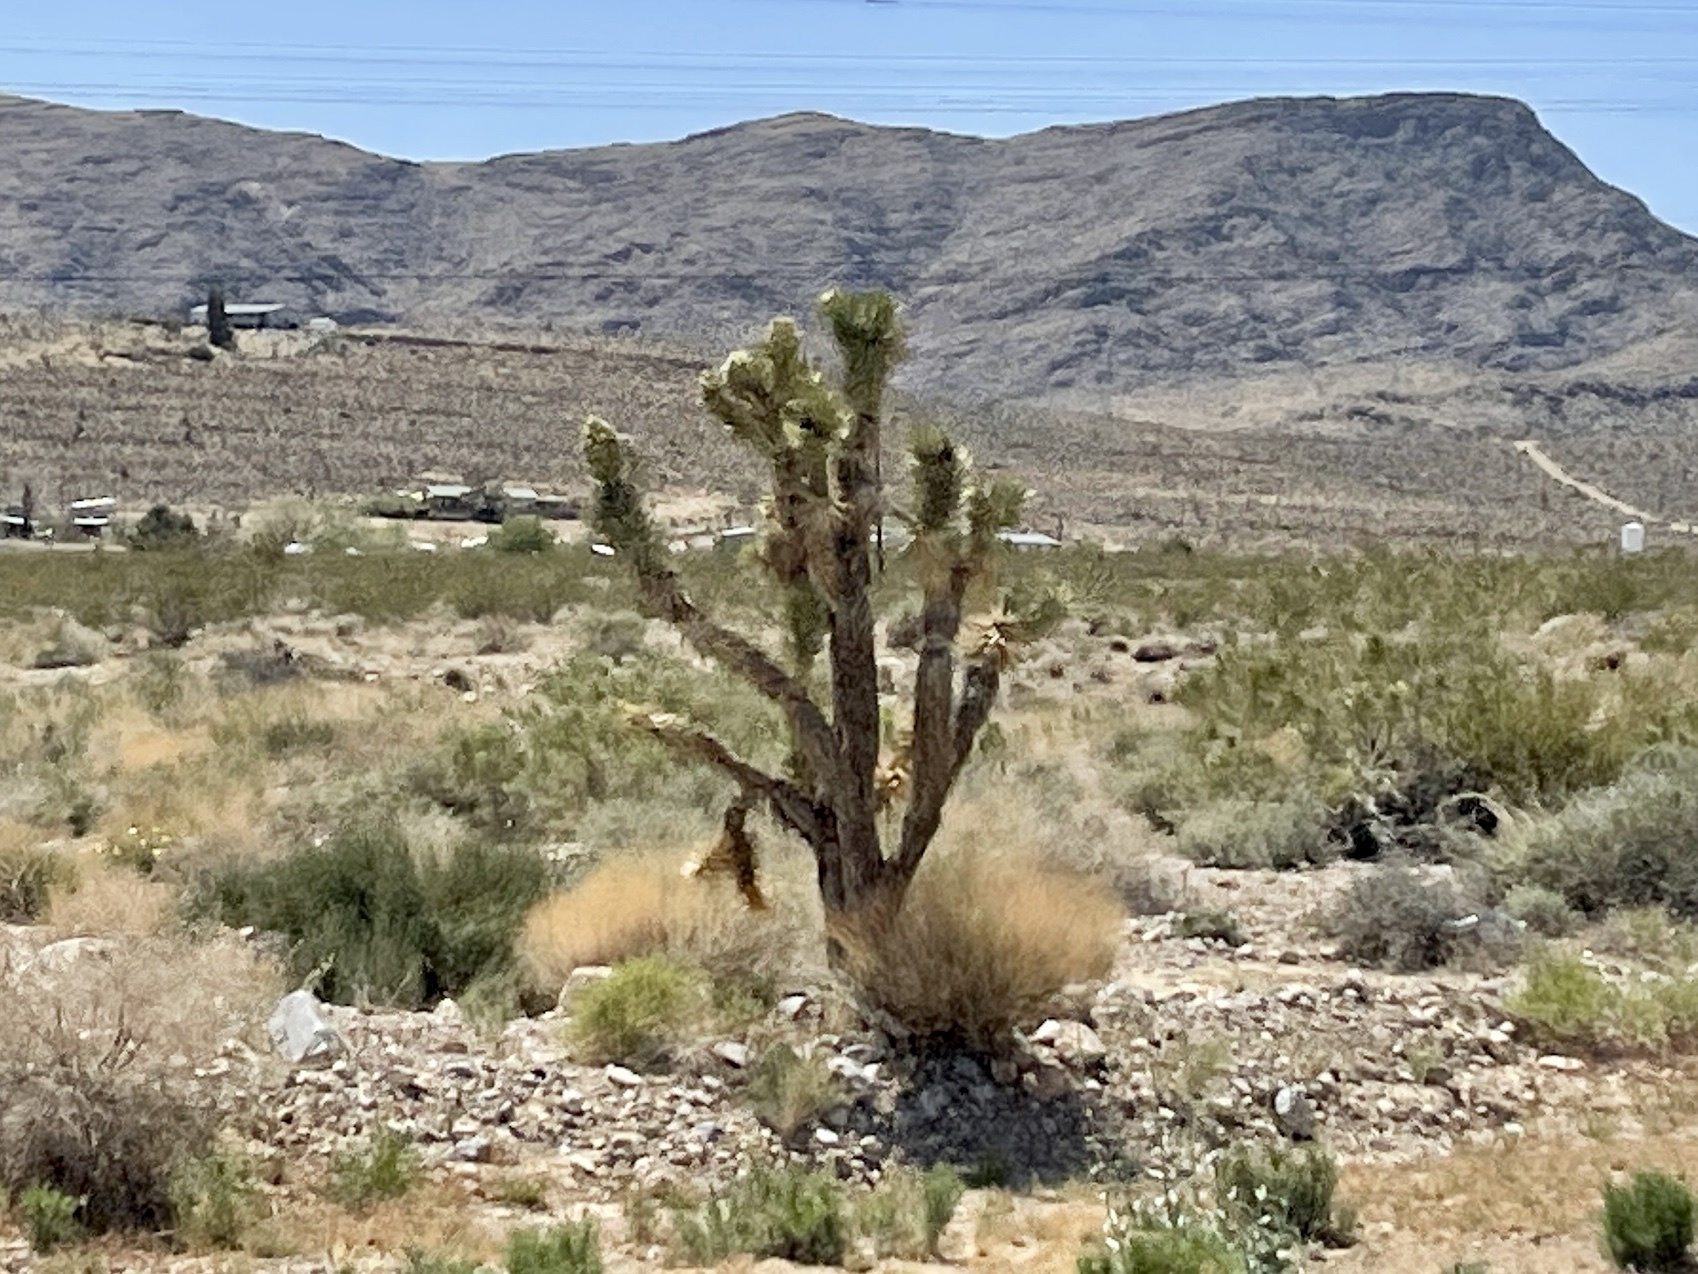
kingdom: Plantae
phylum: Tracheophyta
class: Liliopsida
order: Asparagales
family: Asparagaceae
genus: Yucca
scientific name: Yucca brevifolia
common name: Joshua tree
